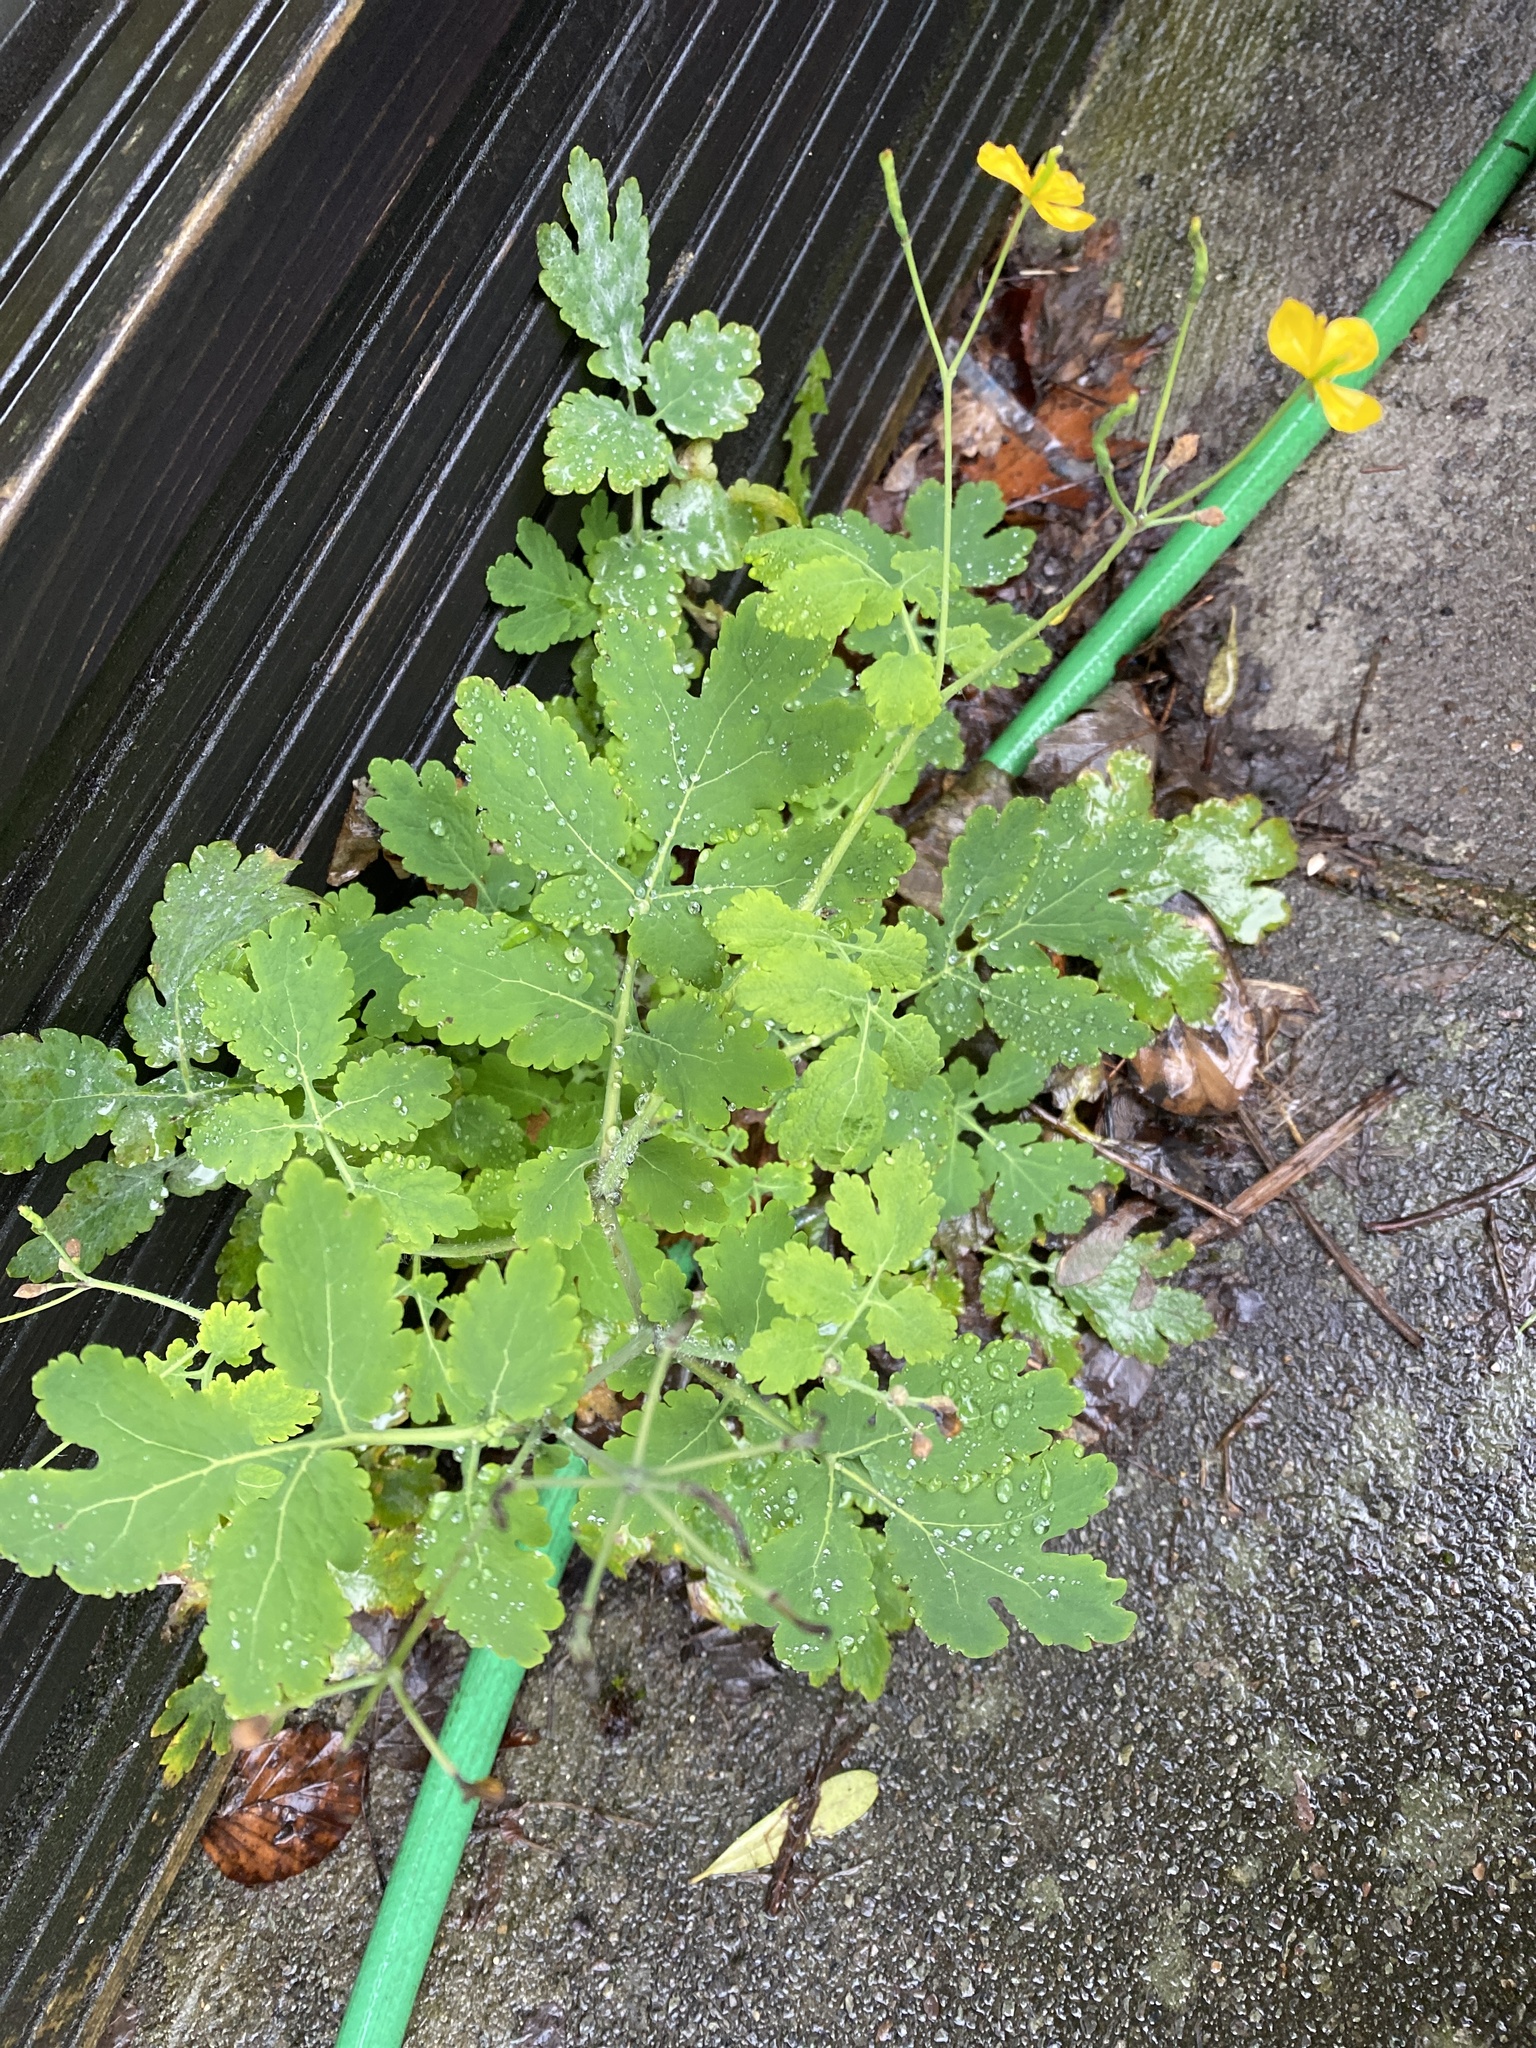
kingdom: Plantae
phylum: Tracheophyta
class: Magnoliopsida
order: Ranunculales
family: Papaveraceae
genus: Chelidonium
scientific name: Chelidonium majus
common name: Greater celandine
